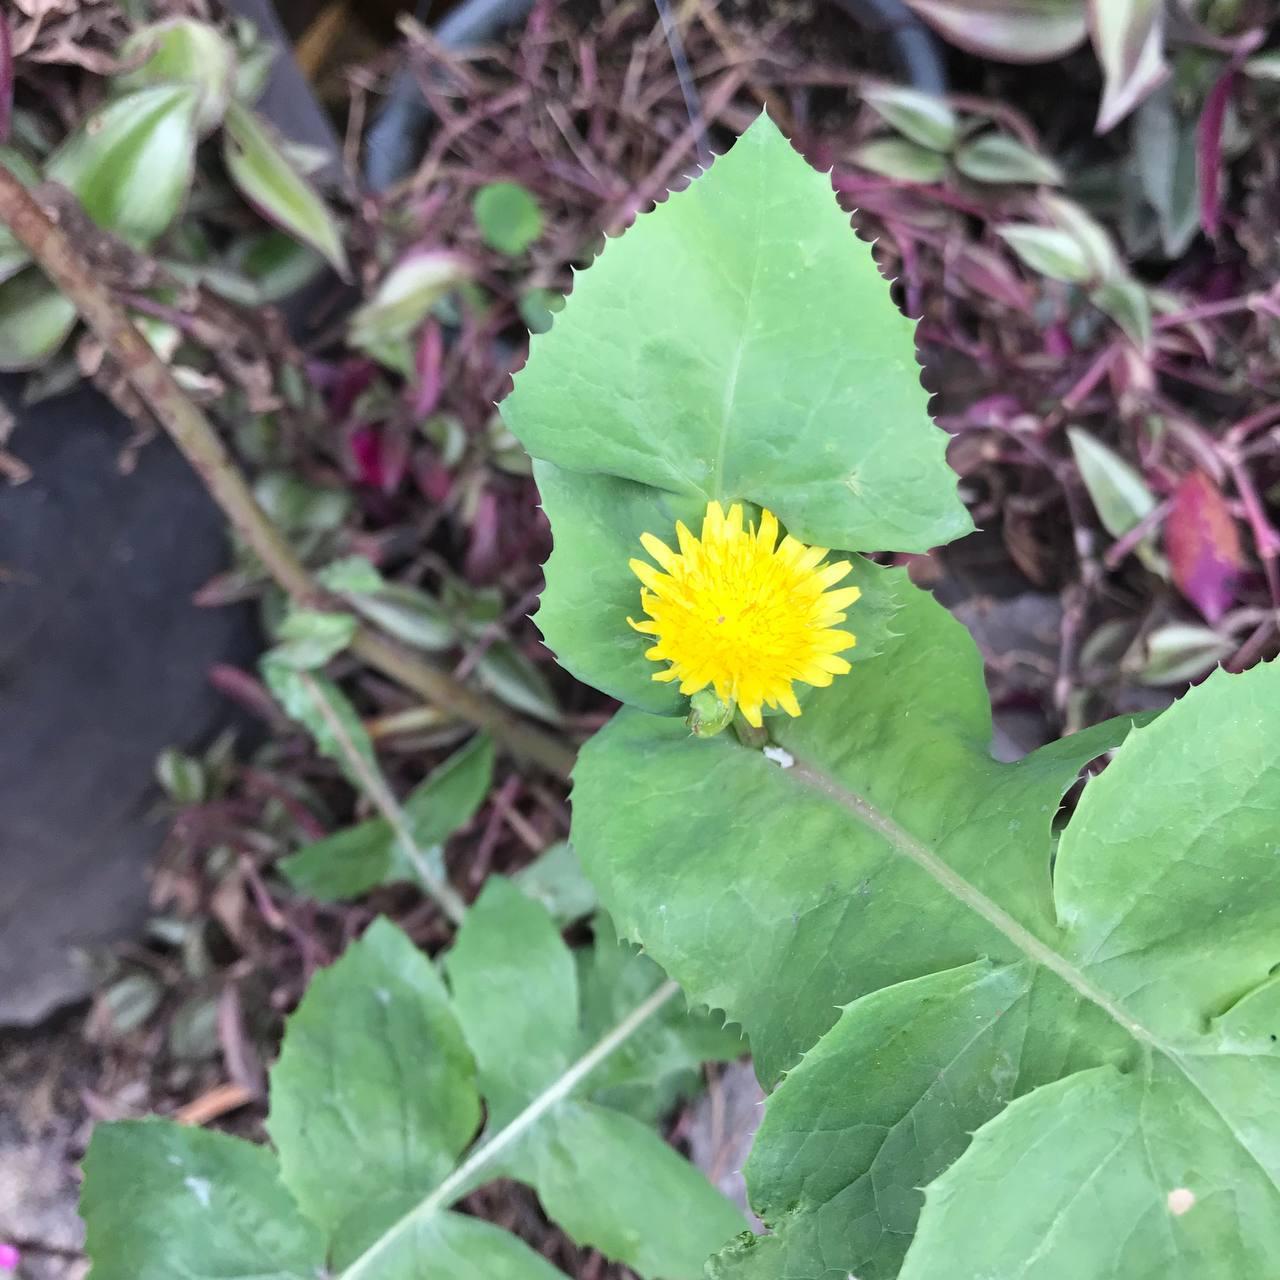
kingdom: Plantae
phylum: Tracheophyta
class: Magnoliopsida
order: Asterales
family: Asteraceae
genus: Sonchus
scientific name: Sonchus oleraceus
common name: Common sowthistle
